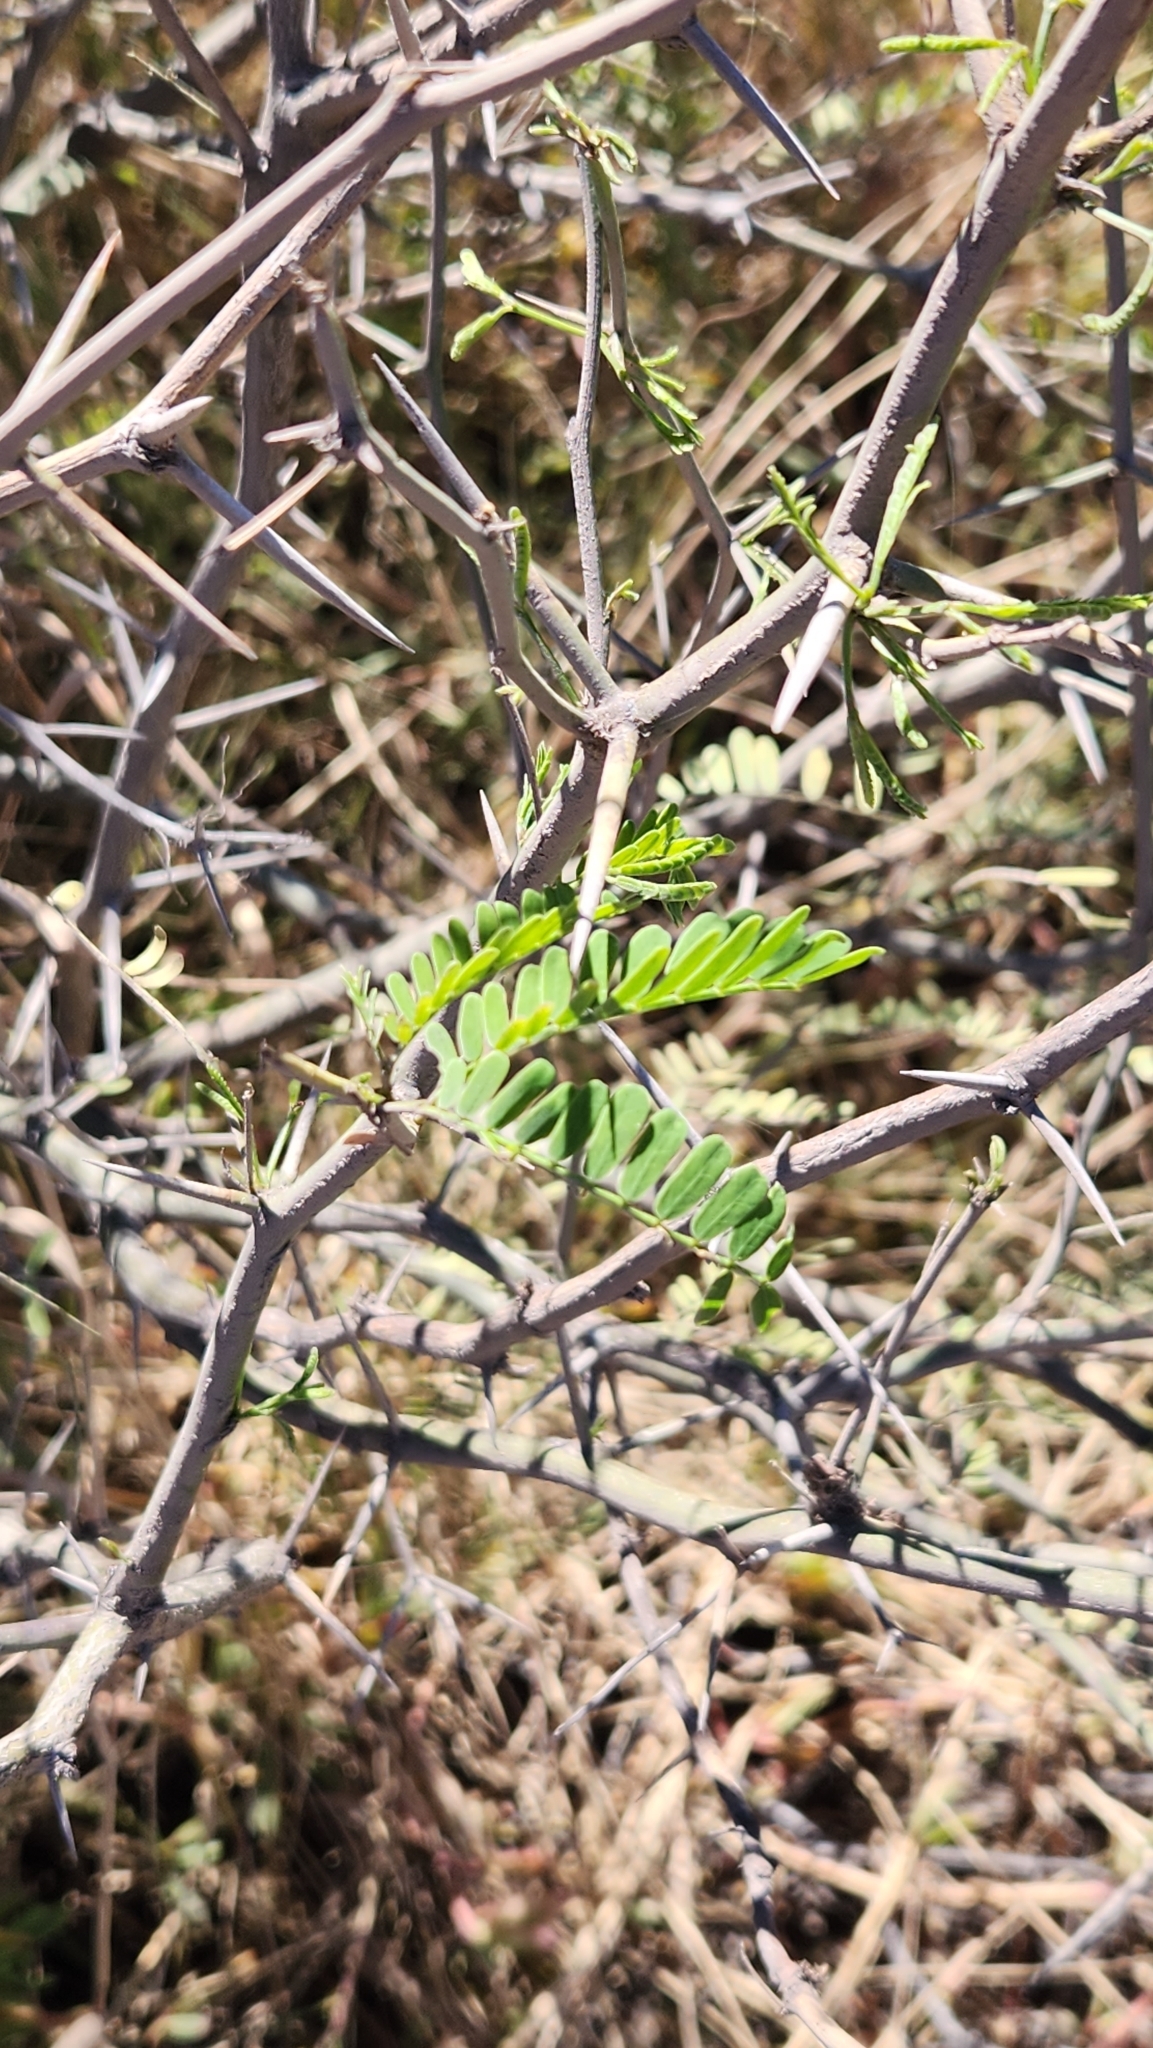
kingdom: Plantae
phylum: Tracheophyta
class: Magnoliopsida
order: Fabales
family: Fabaceae
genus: Prosopis
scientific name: Prosopis articulata
